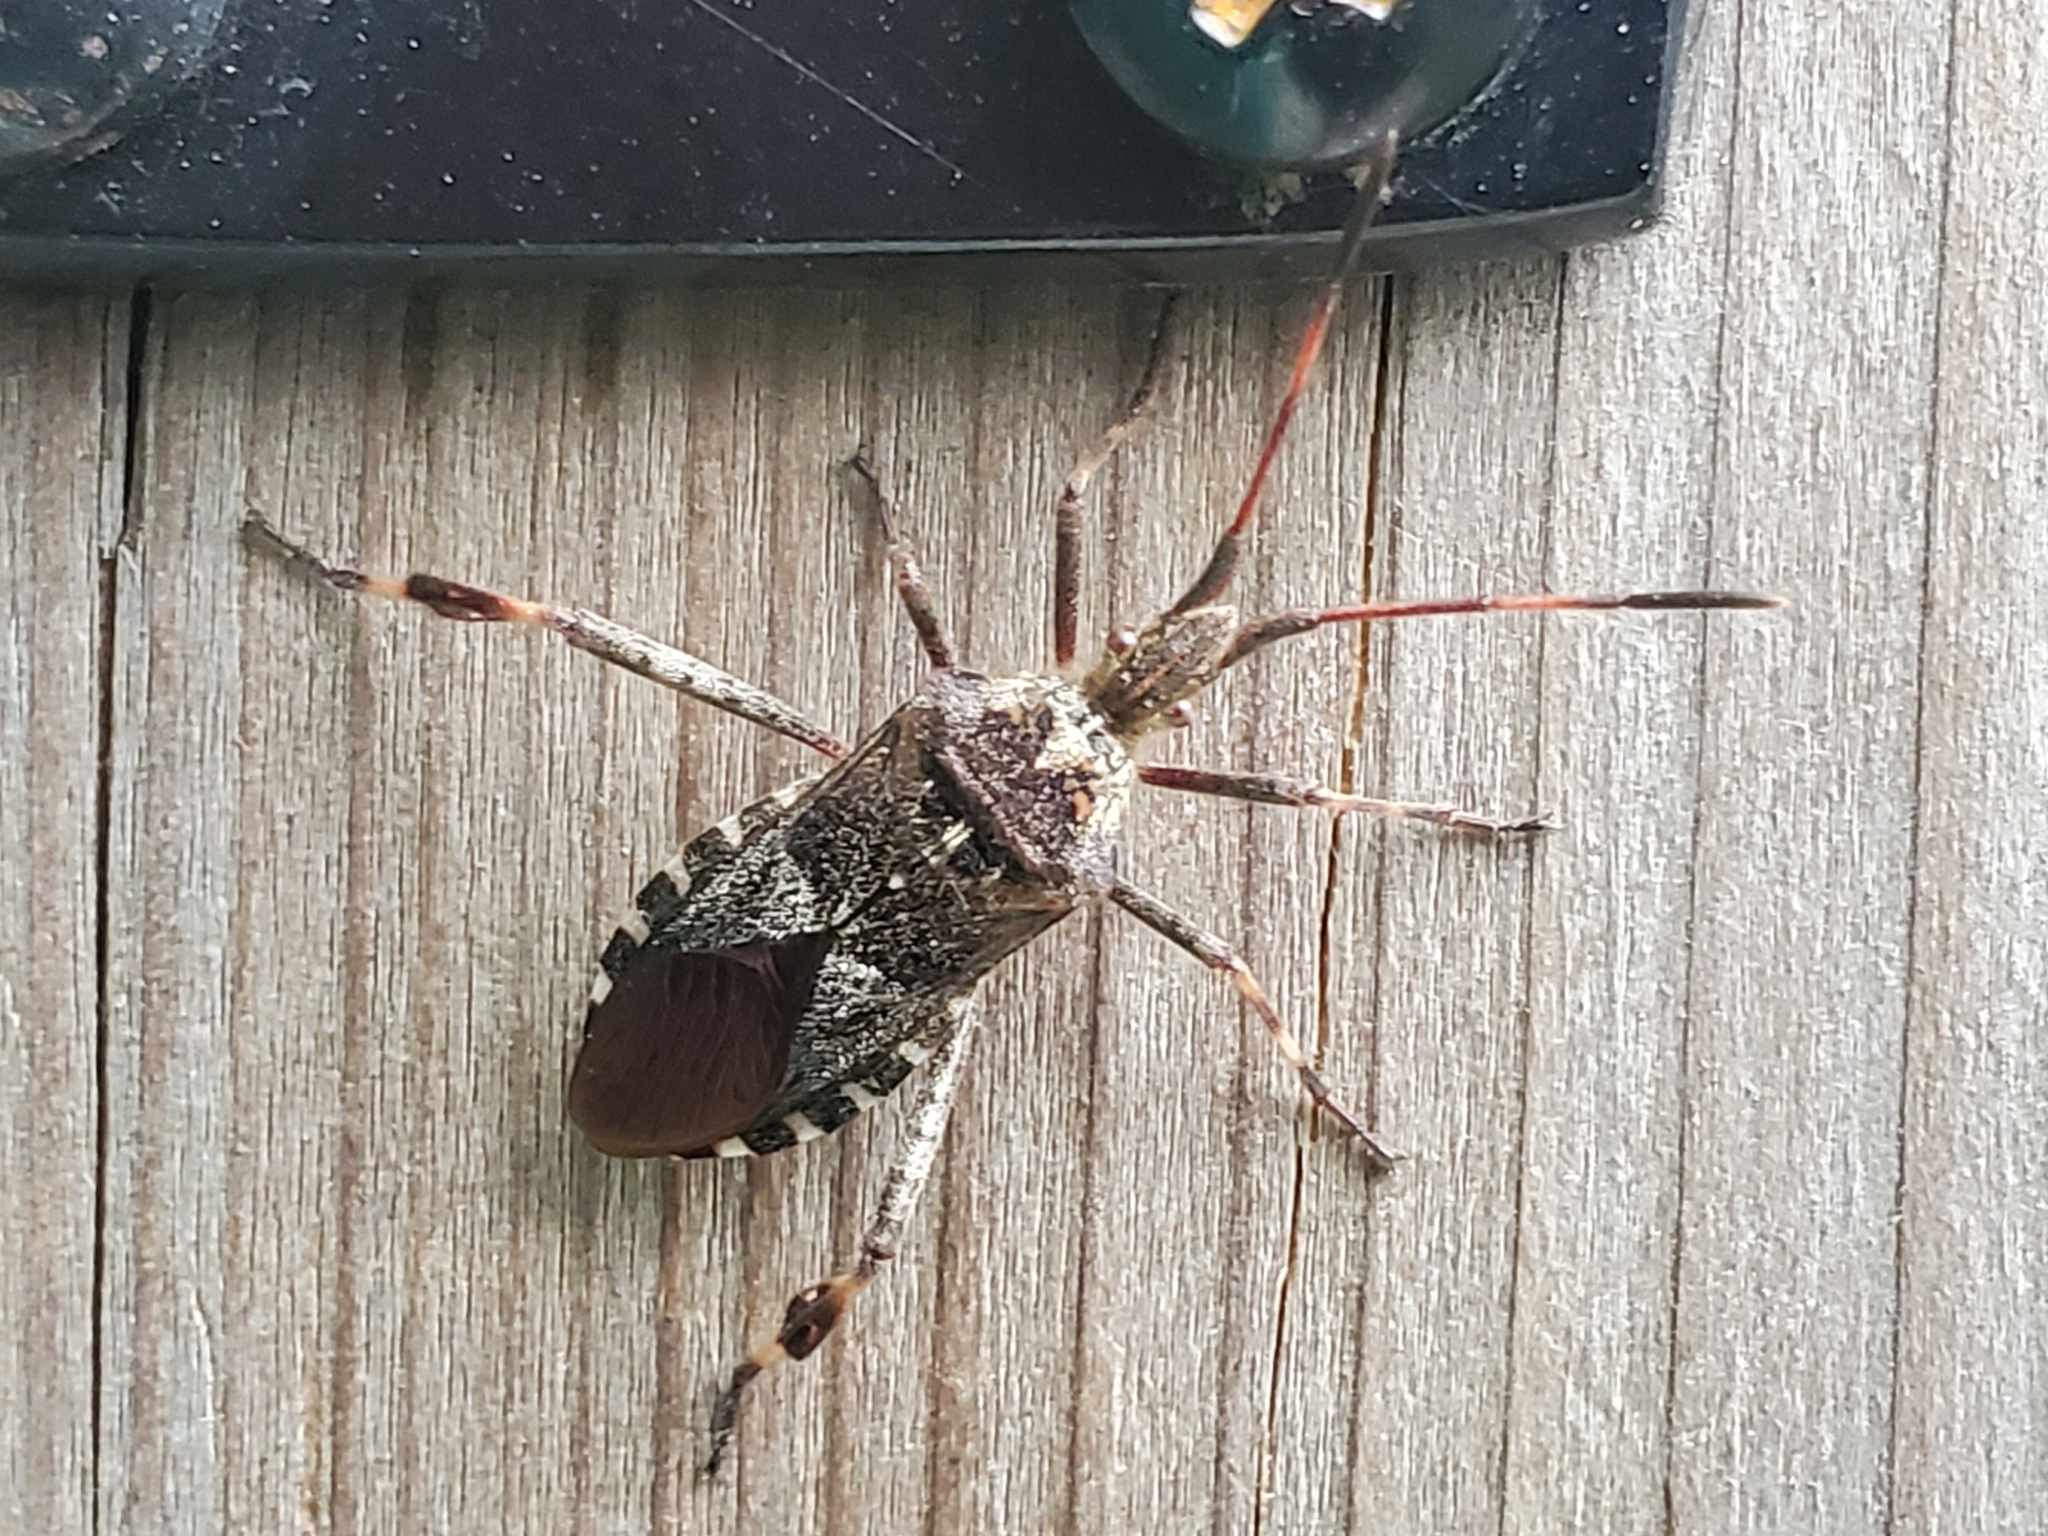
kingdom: Animalia
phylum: Arthropoda
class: Insecta
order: Hemiptera
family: Coreidae
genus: Leptoglossus
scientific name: Leptoglossus occidentalis
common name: Western conifer-seed bug
